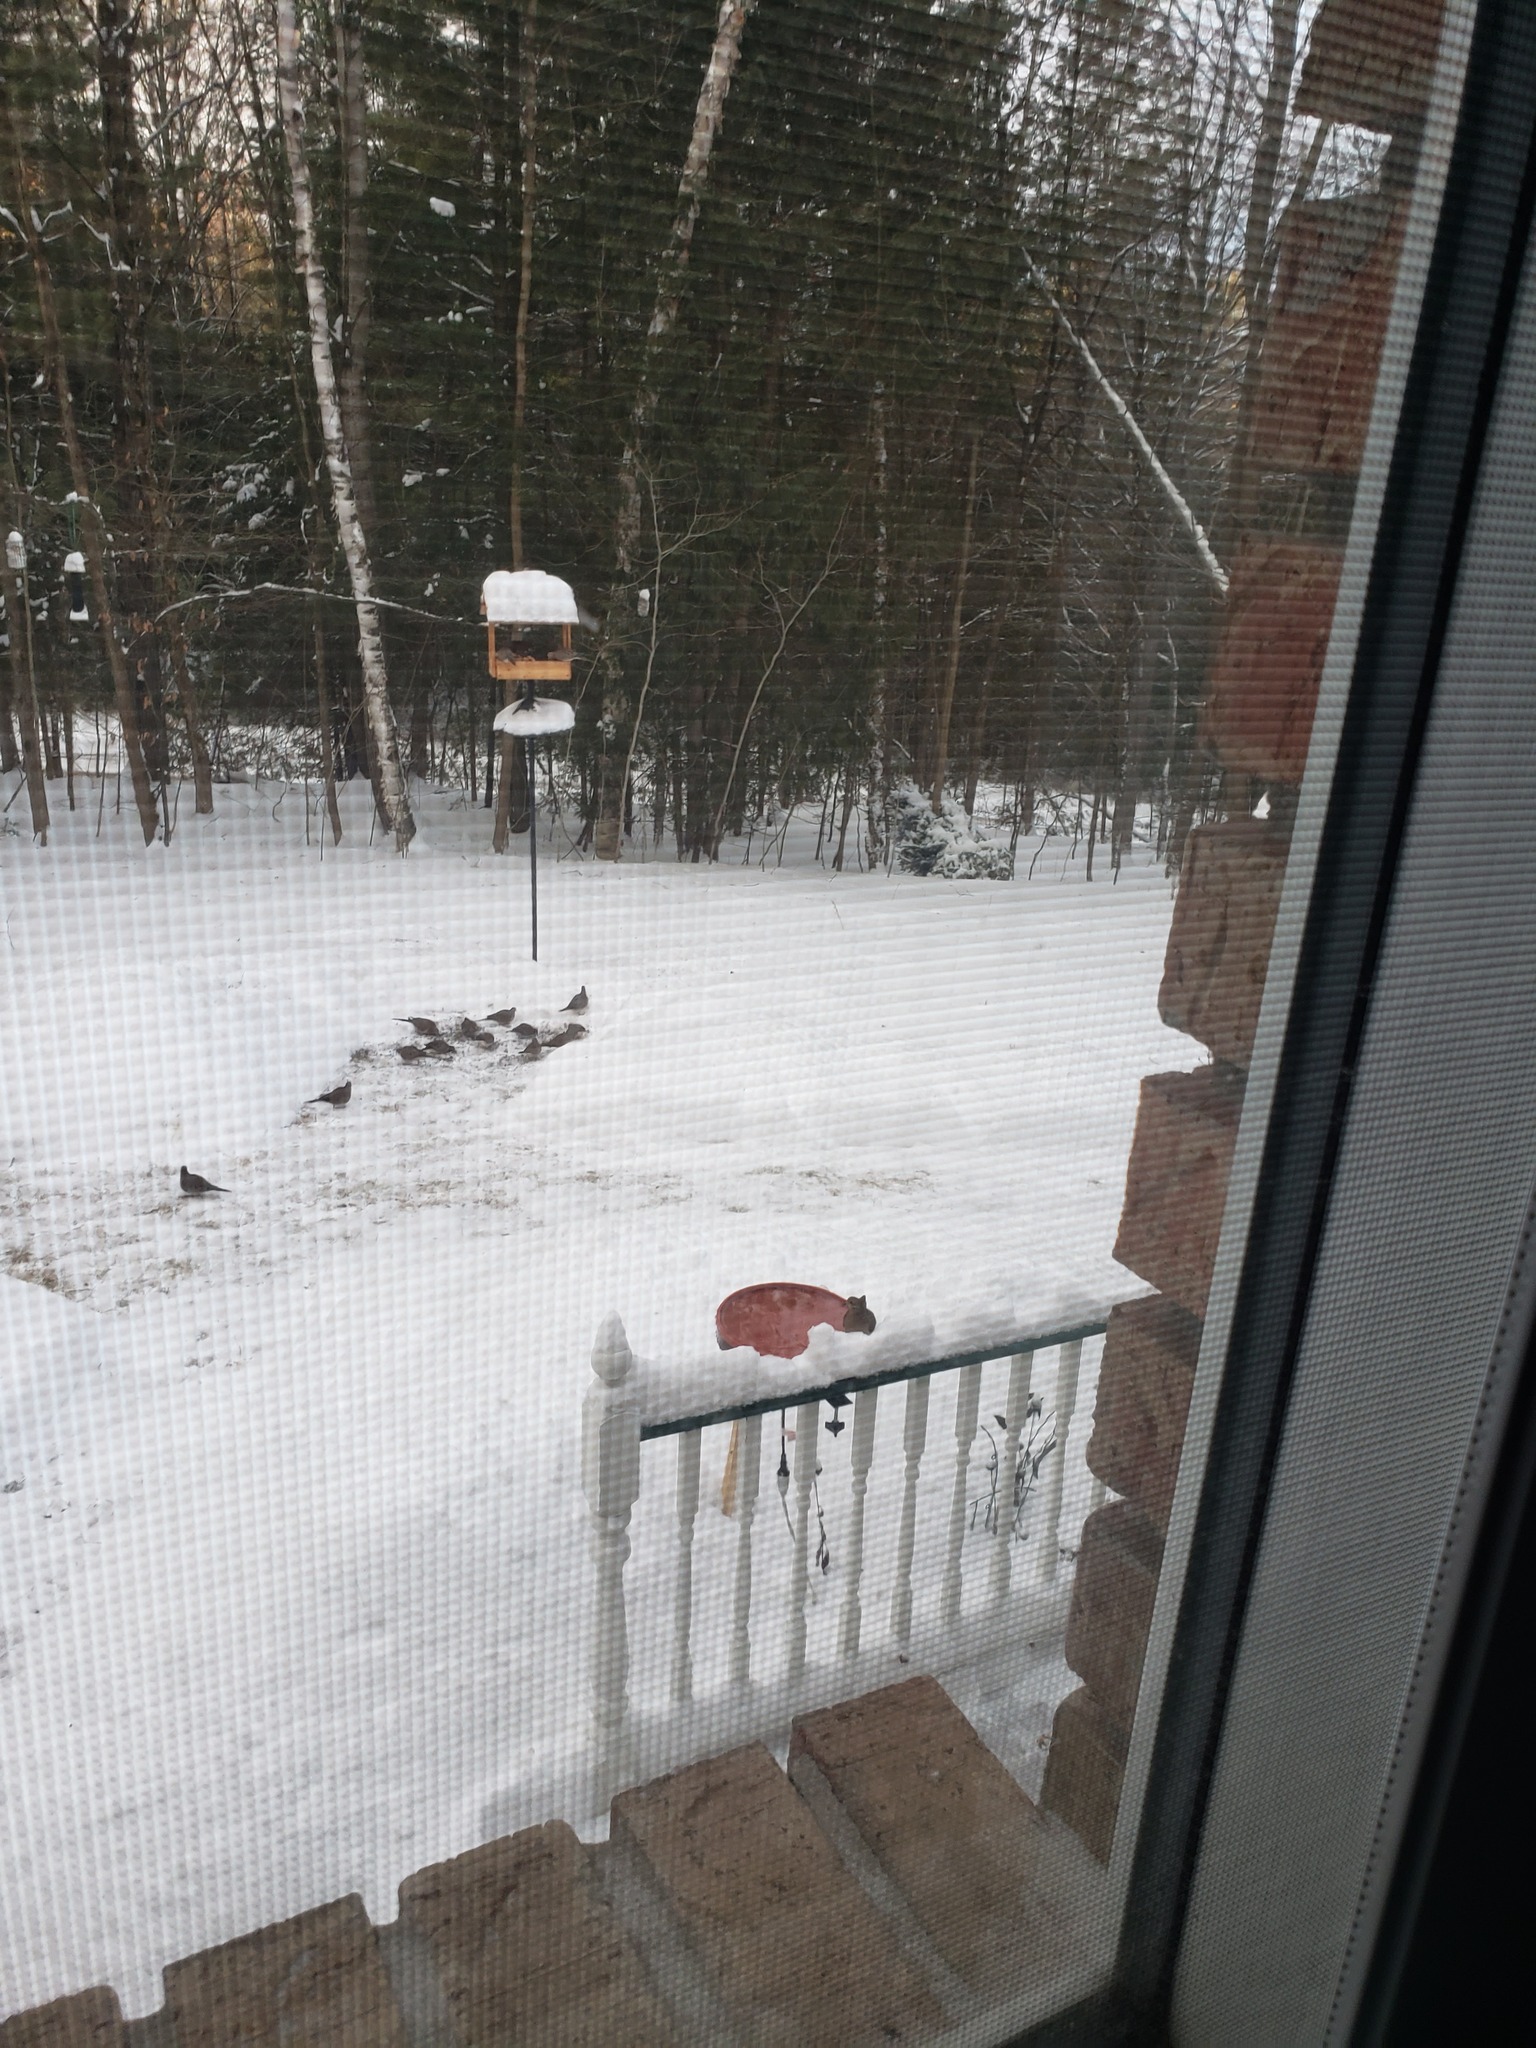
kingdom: Animalia
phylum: Chordata
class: Aves
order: Columbiformes
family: Columbidae
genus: Zenaida
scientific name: Zenaida macroura
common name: Mourning dove
